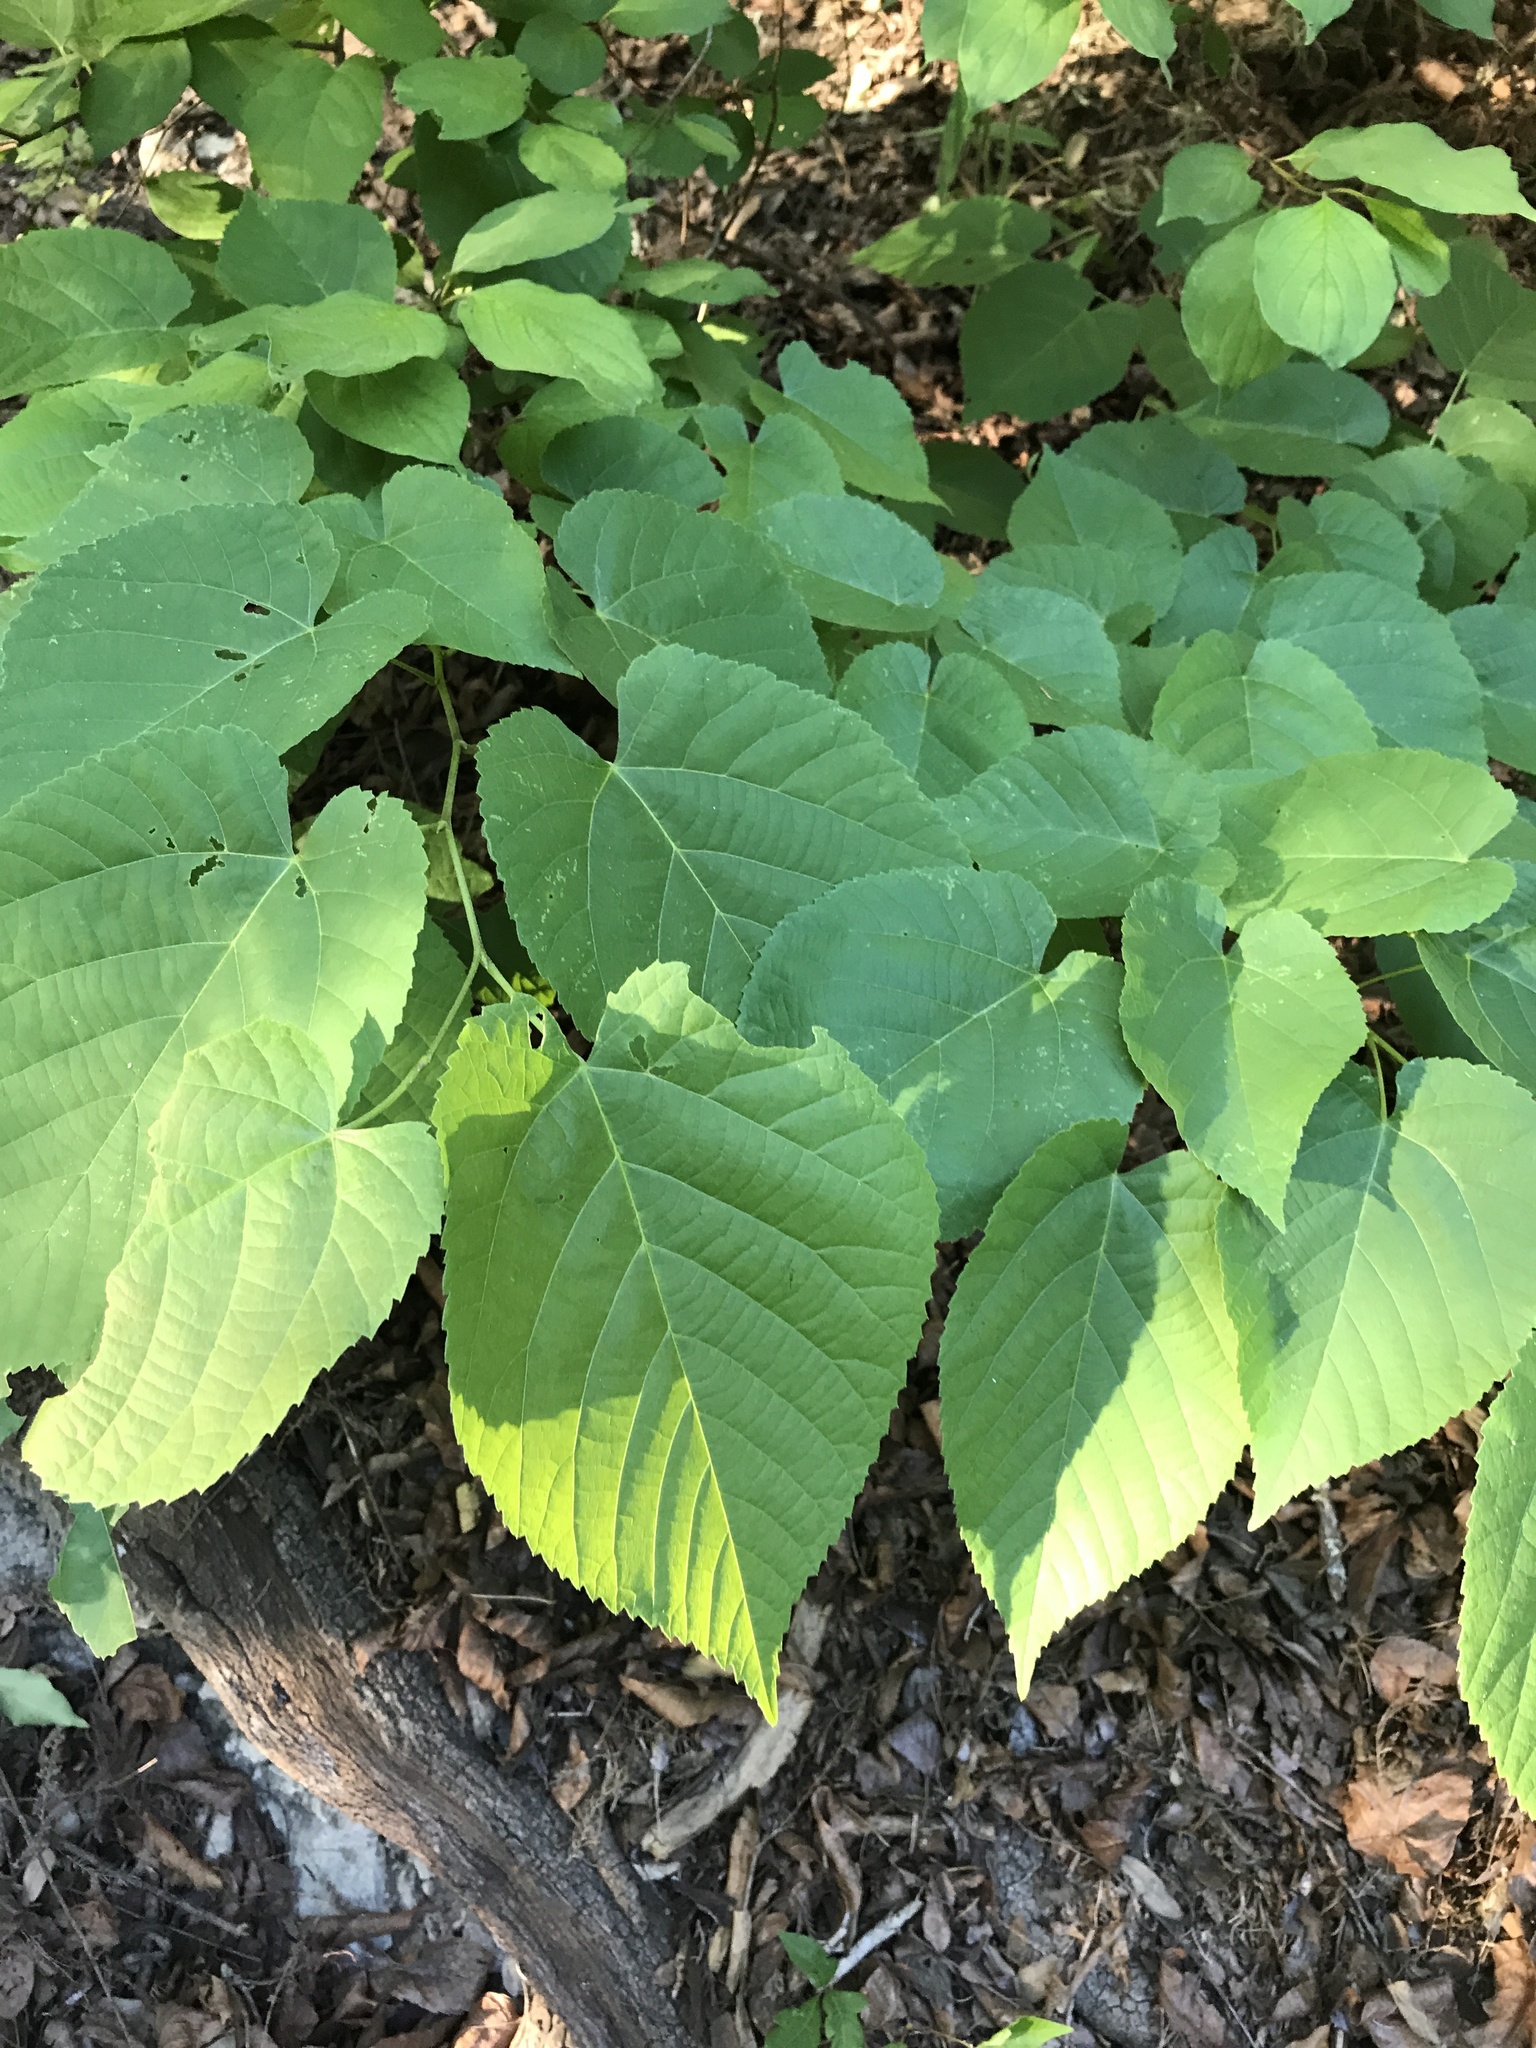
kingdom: Plantae
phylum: Tracheophyta
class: Magnoliopsida
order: Malvales
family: Malvaceae
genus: Tilia
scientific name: Tilia americana
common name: Basswood
